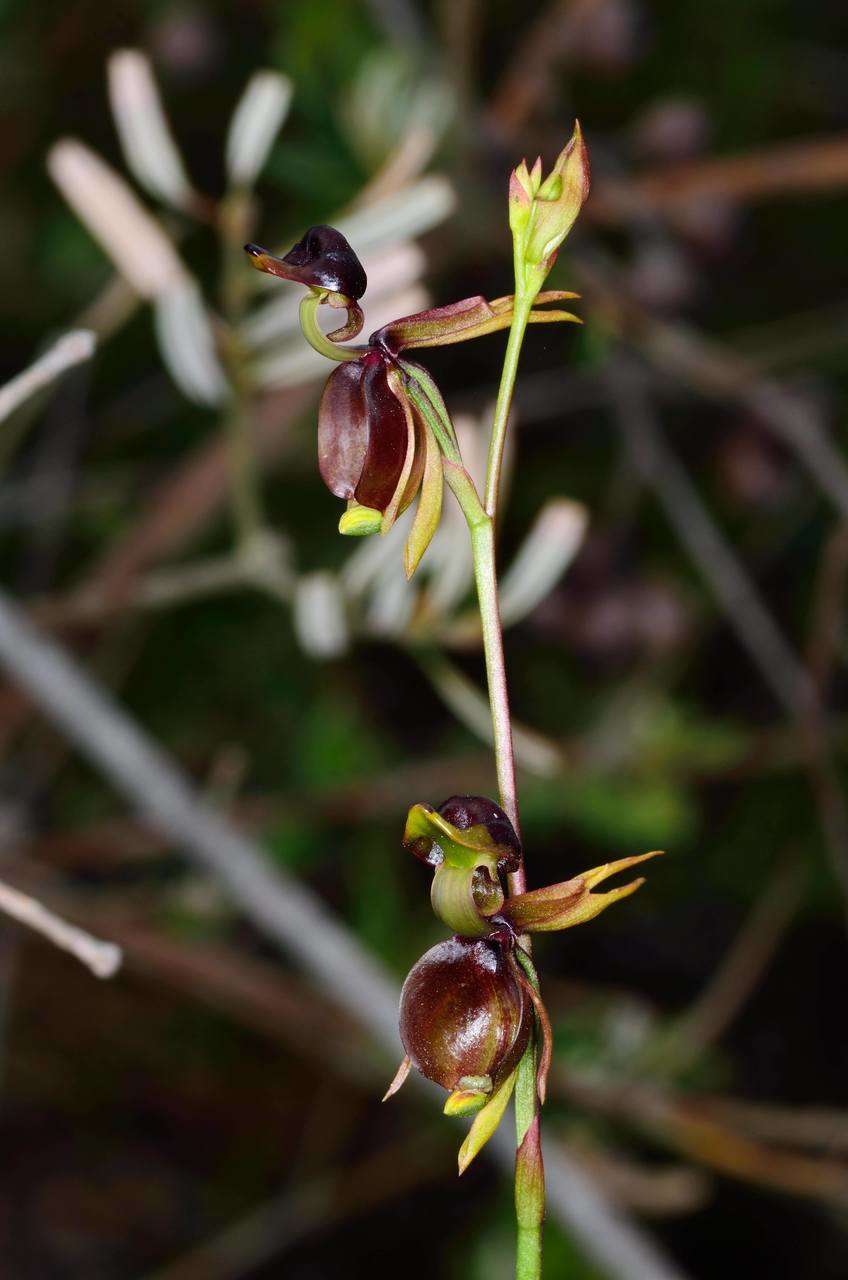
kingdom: Plantae
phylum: Tracheophyta
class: Liliopsida
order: Asparagales
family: Orchidaceae
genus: Caleana
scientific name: Caleana major
